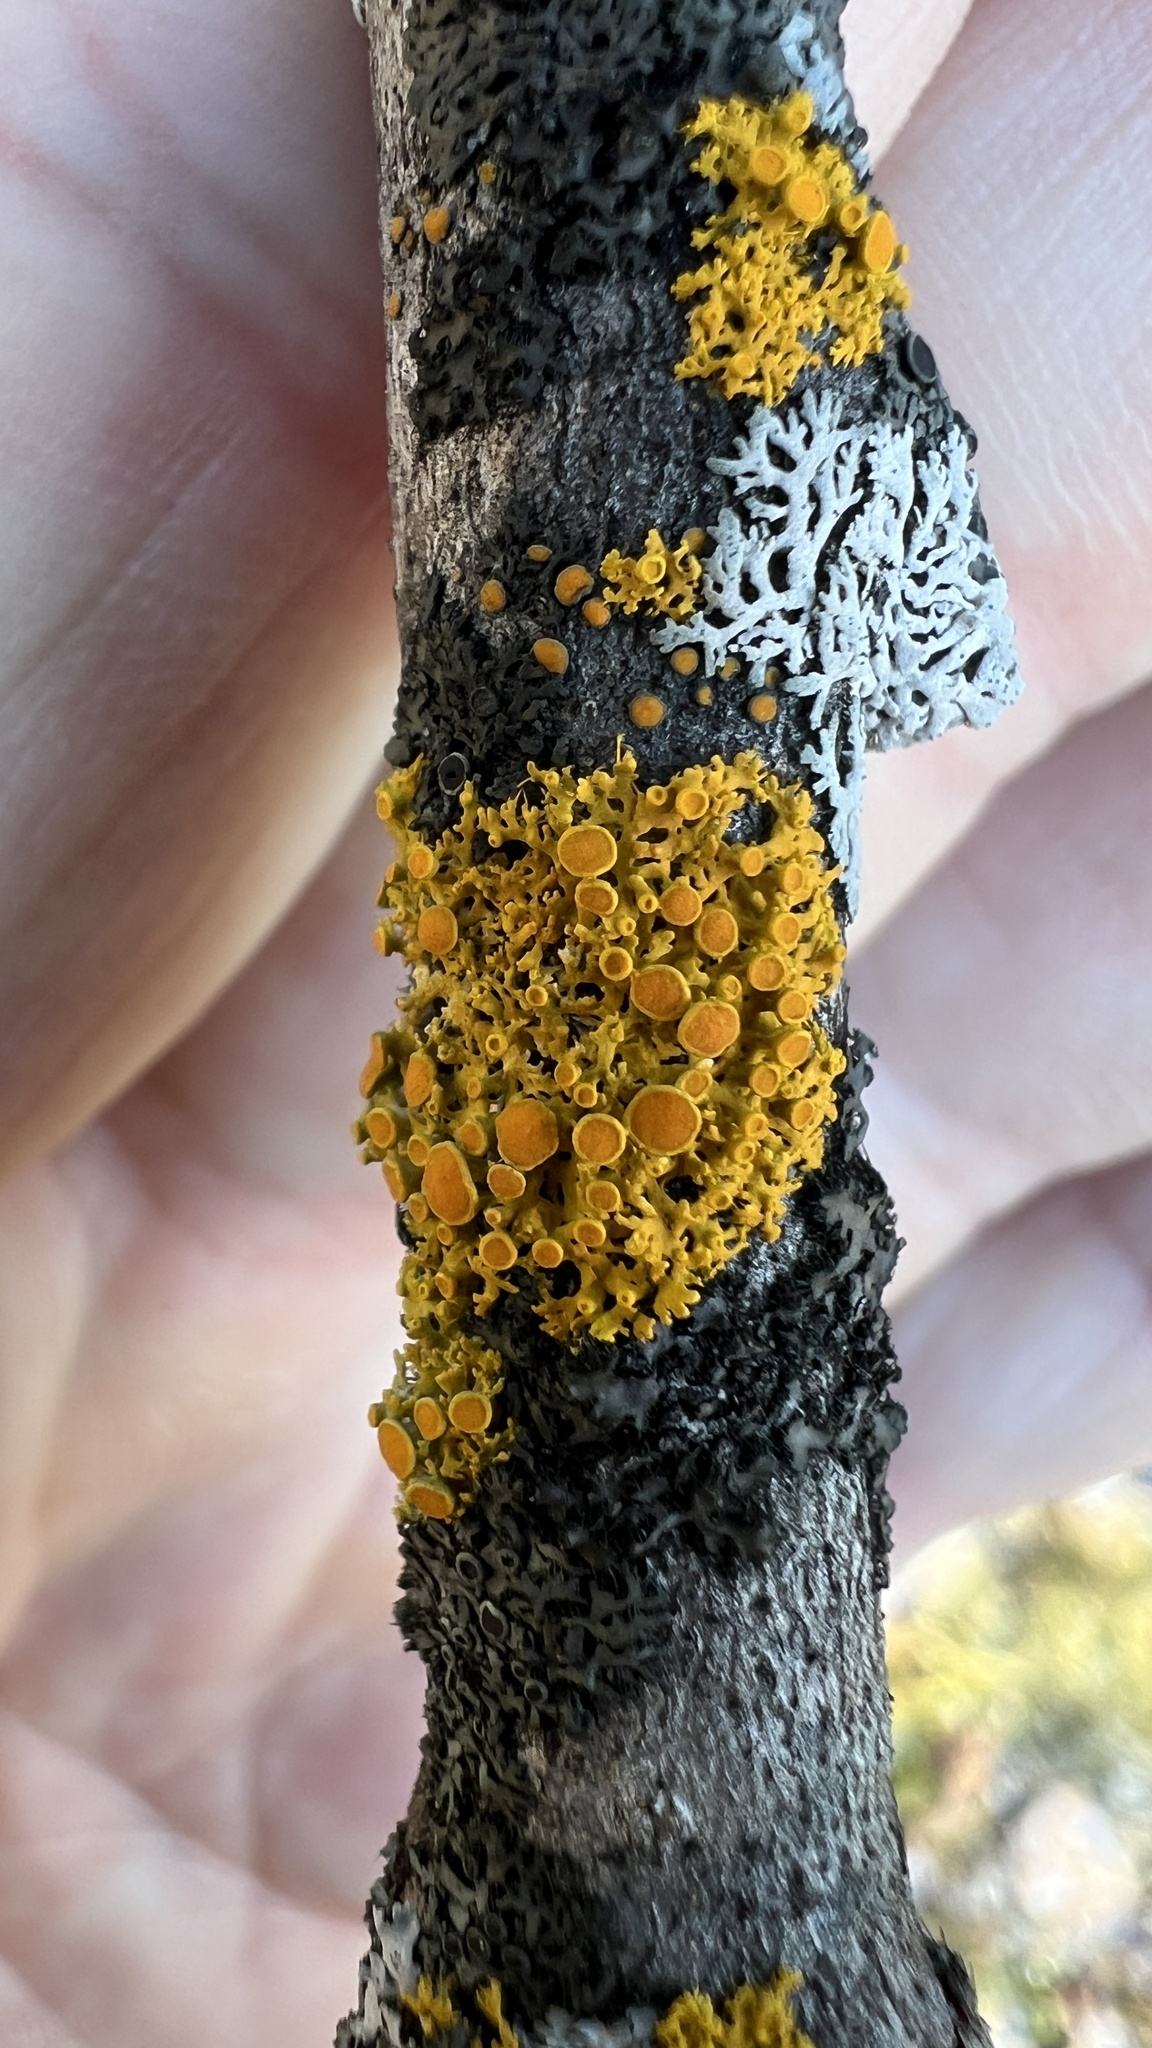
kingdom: Fungi
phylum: Ascomycota
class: Lecanoromycetes
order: Teloschistales
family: Teloschistaceae
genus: Gallowayella
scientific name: Gallowayella hasseana
